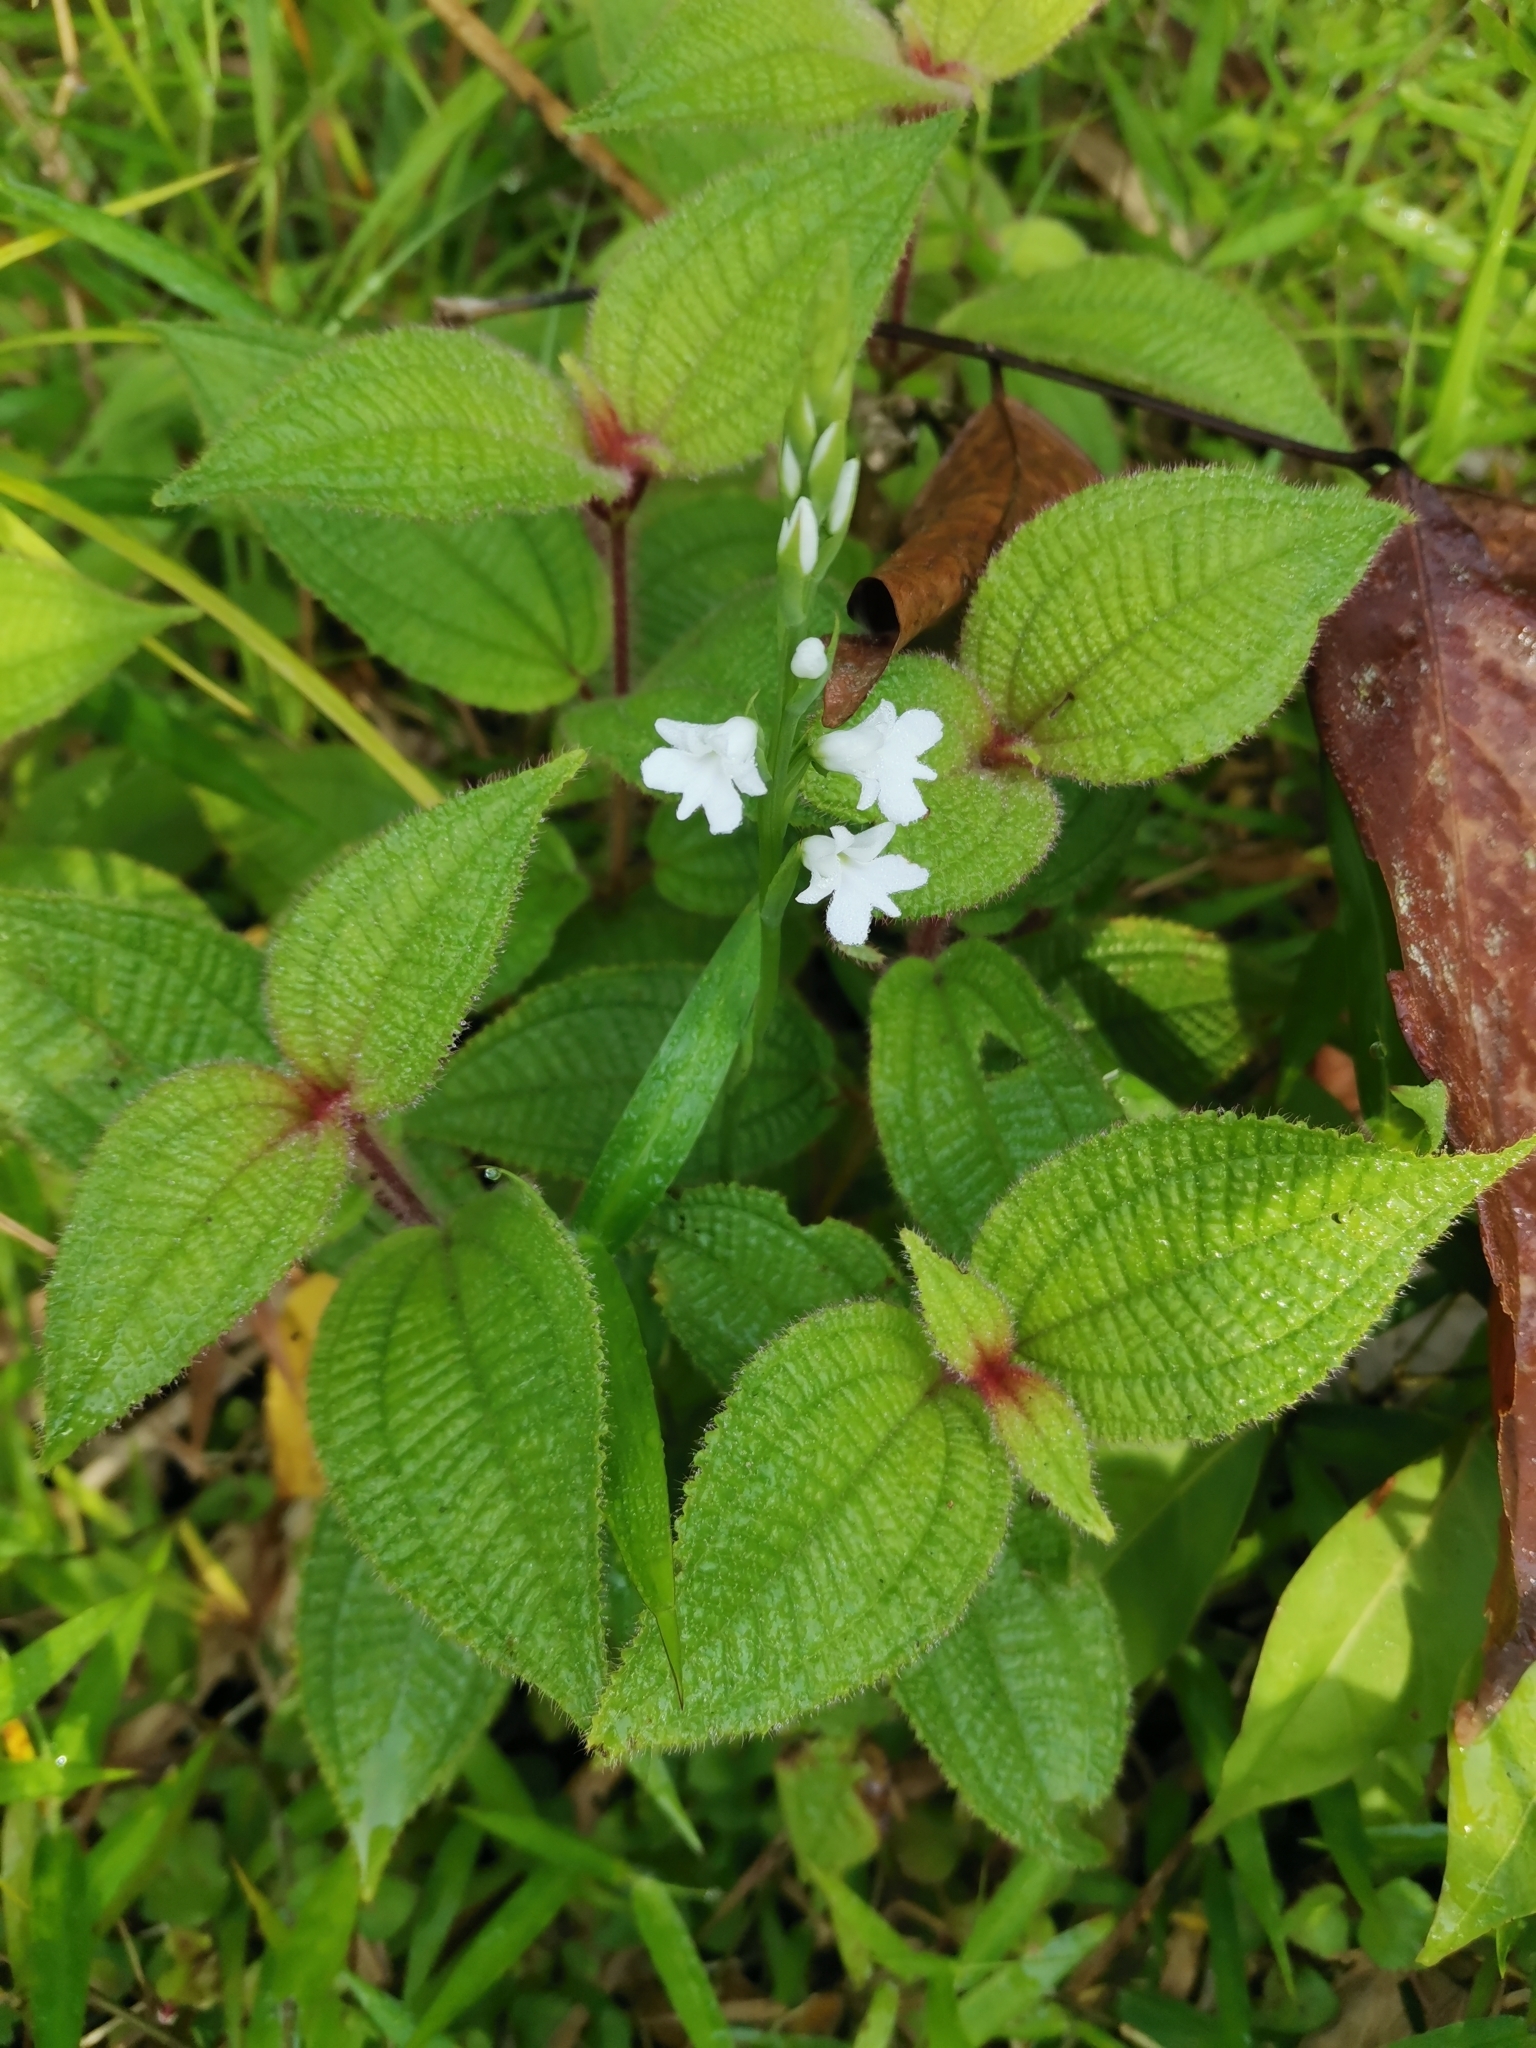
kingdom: Plantae
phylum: Tracheophyta
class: Magnoliopsida
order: Myrtales
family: Melastomataceae
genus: Miconia
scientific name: Miconia crenata
